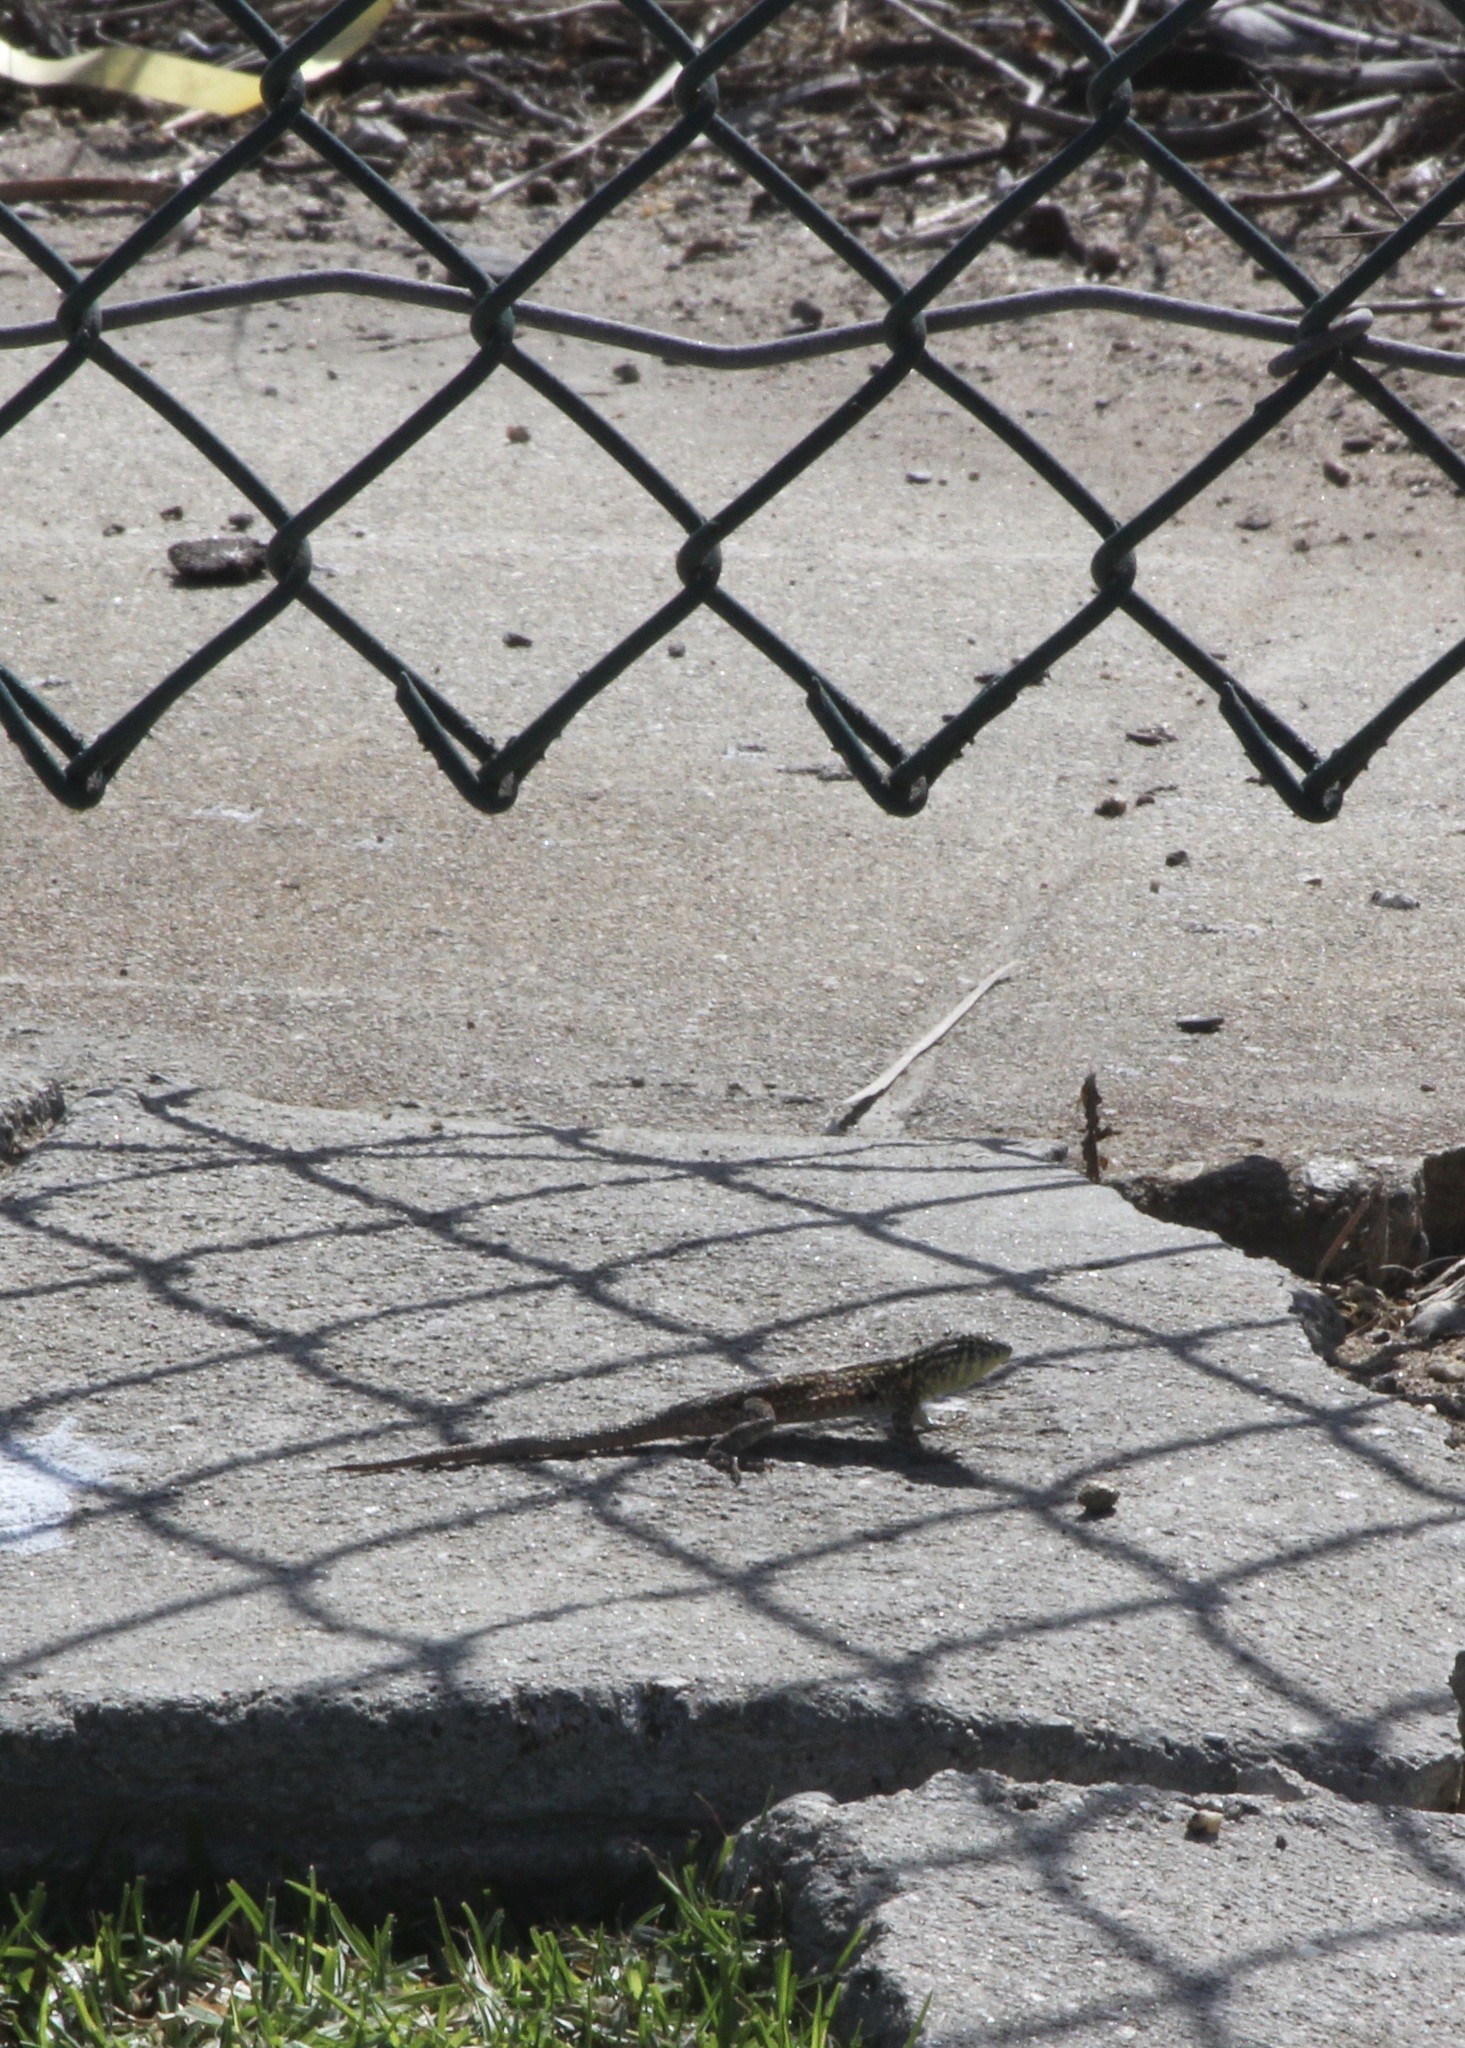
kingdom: Animalia
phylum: Chordata
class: Squamata
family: Phrynosomatidae
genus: Uta
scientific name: Uta stansburiana
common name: Side-blotched lizard
